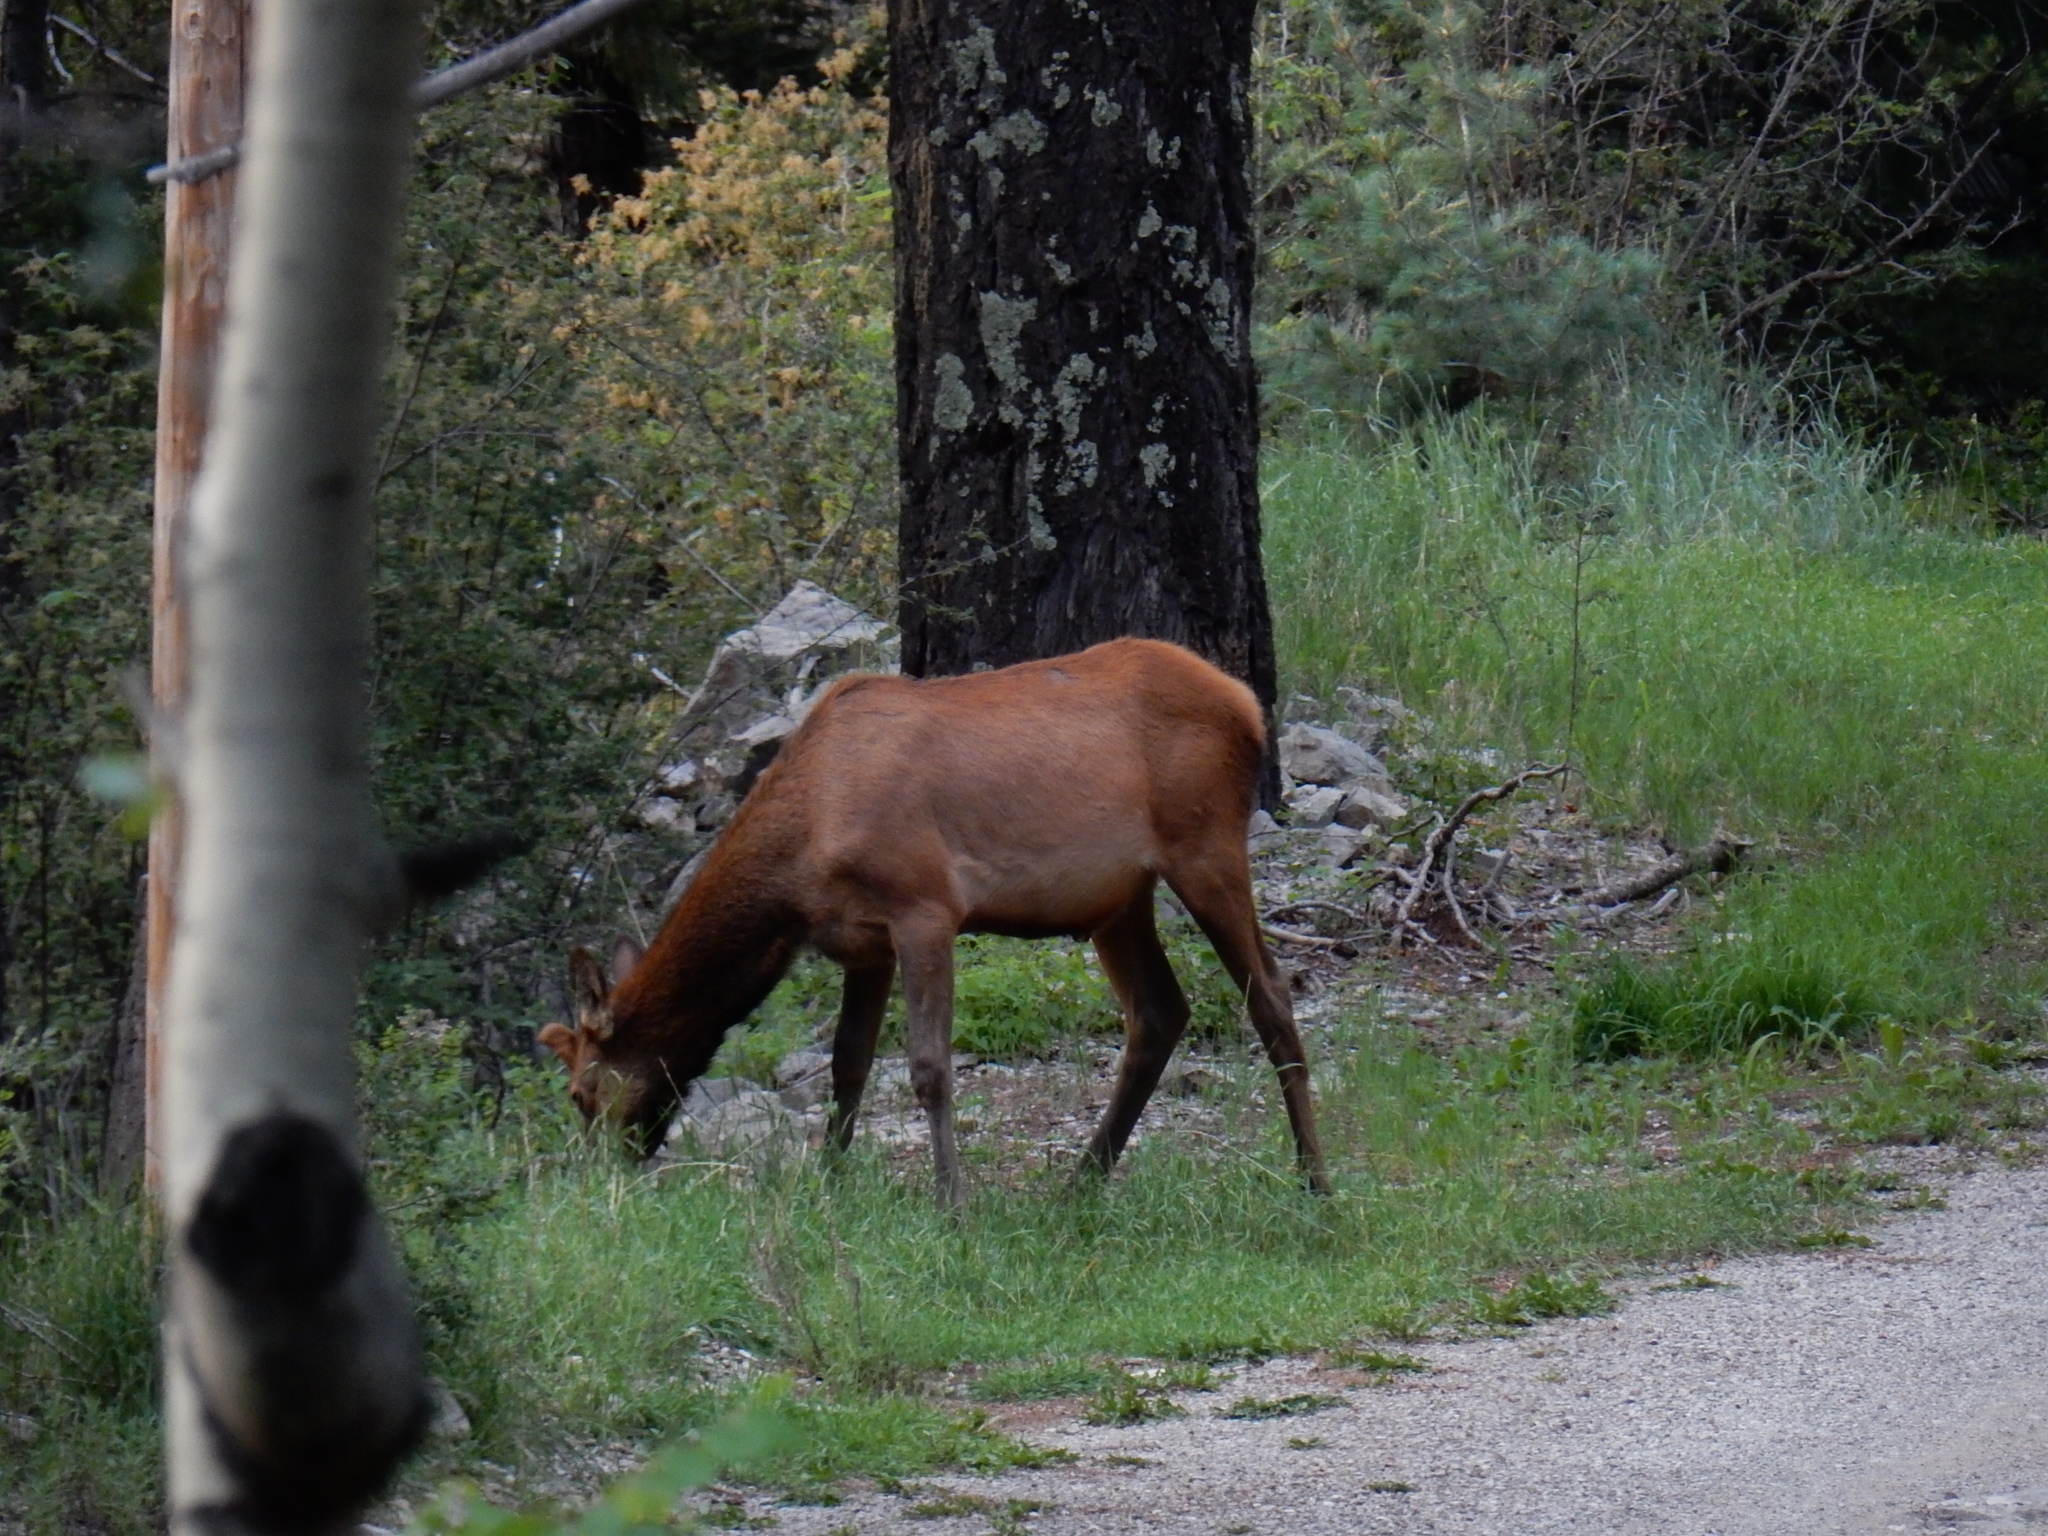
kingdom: Animalia
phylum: Chordata
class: Mammalia
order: Artiodactyla
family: Cervidae
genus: Cervus
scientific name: Cervus elaphus
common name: Red deer
